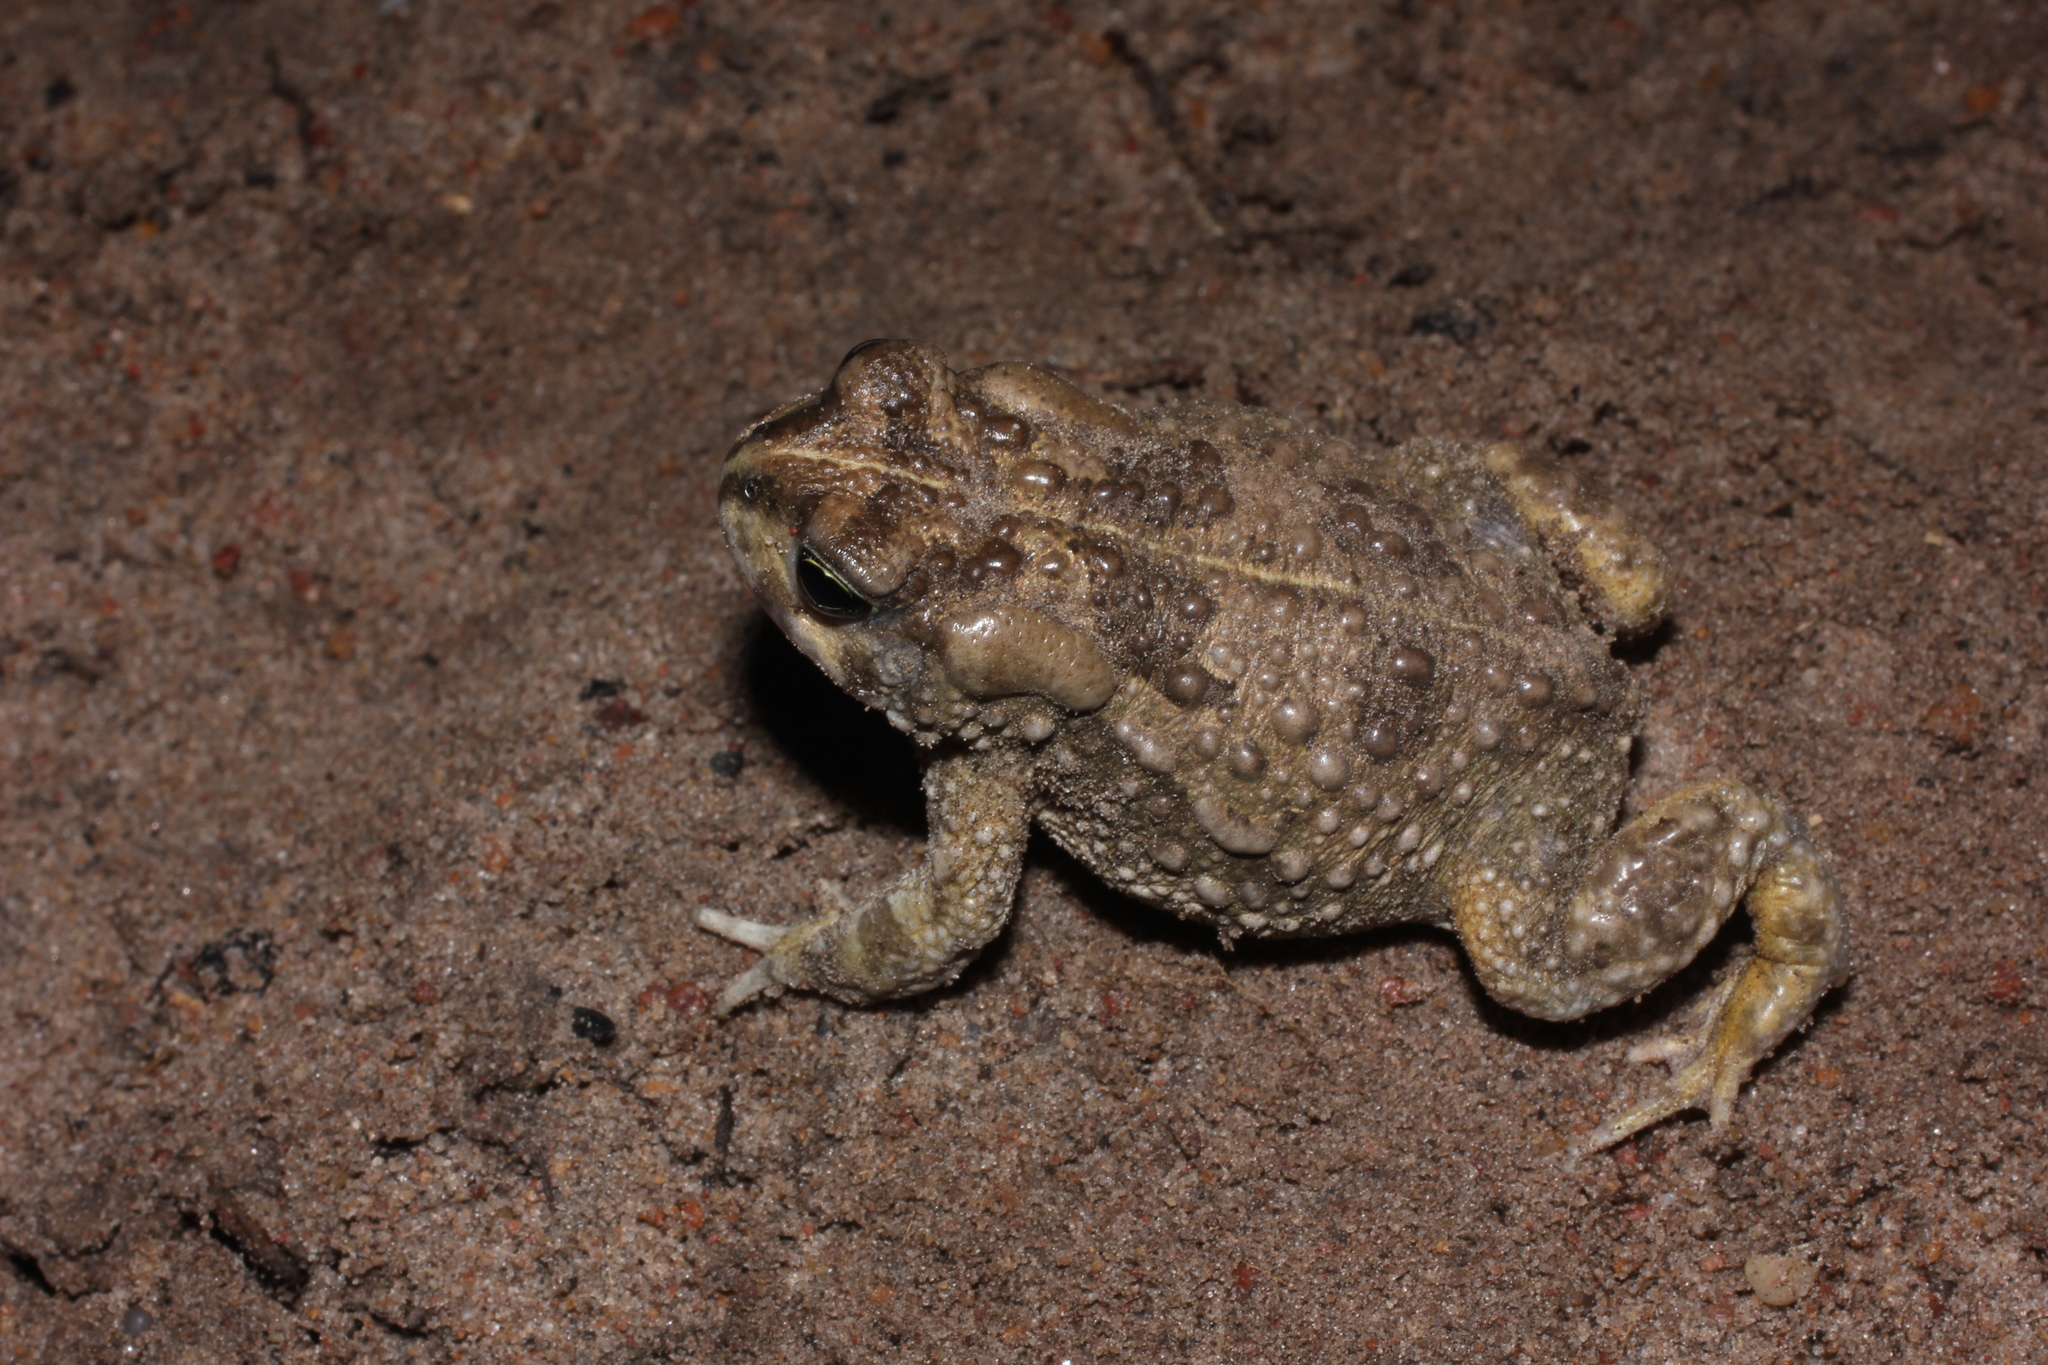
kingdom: Animalia
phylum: Chordata
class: Amphibia
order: Anura
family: Bufonidae
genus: Vandijkophrynus
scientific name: Vandijkophrynus angusticeps
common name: Sand toad
